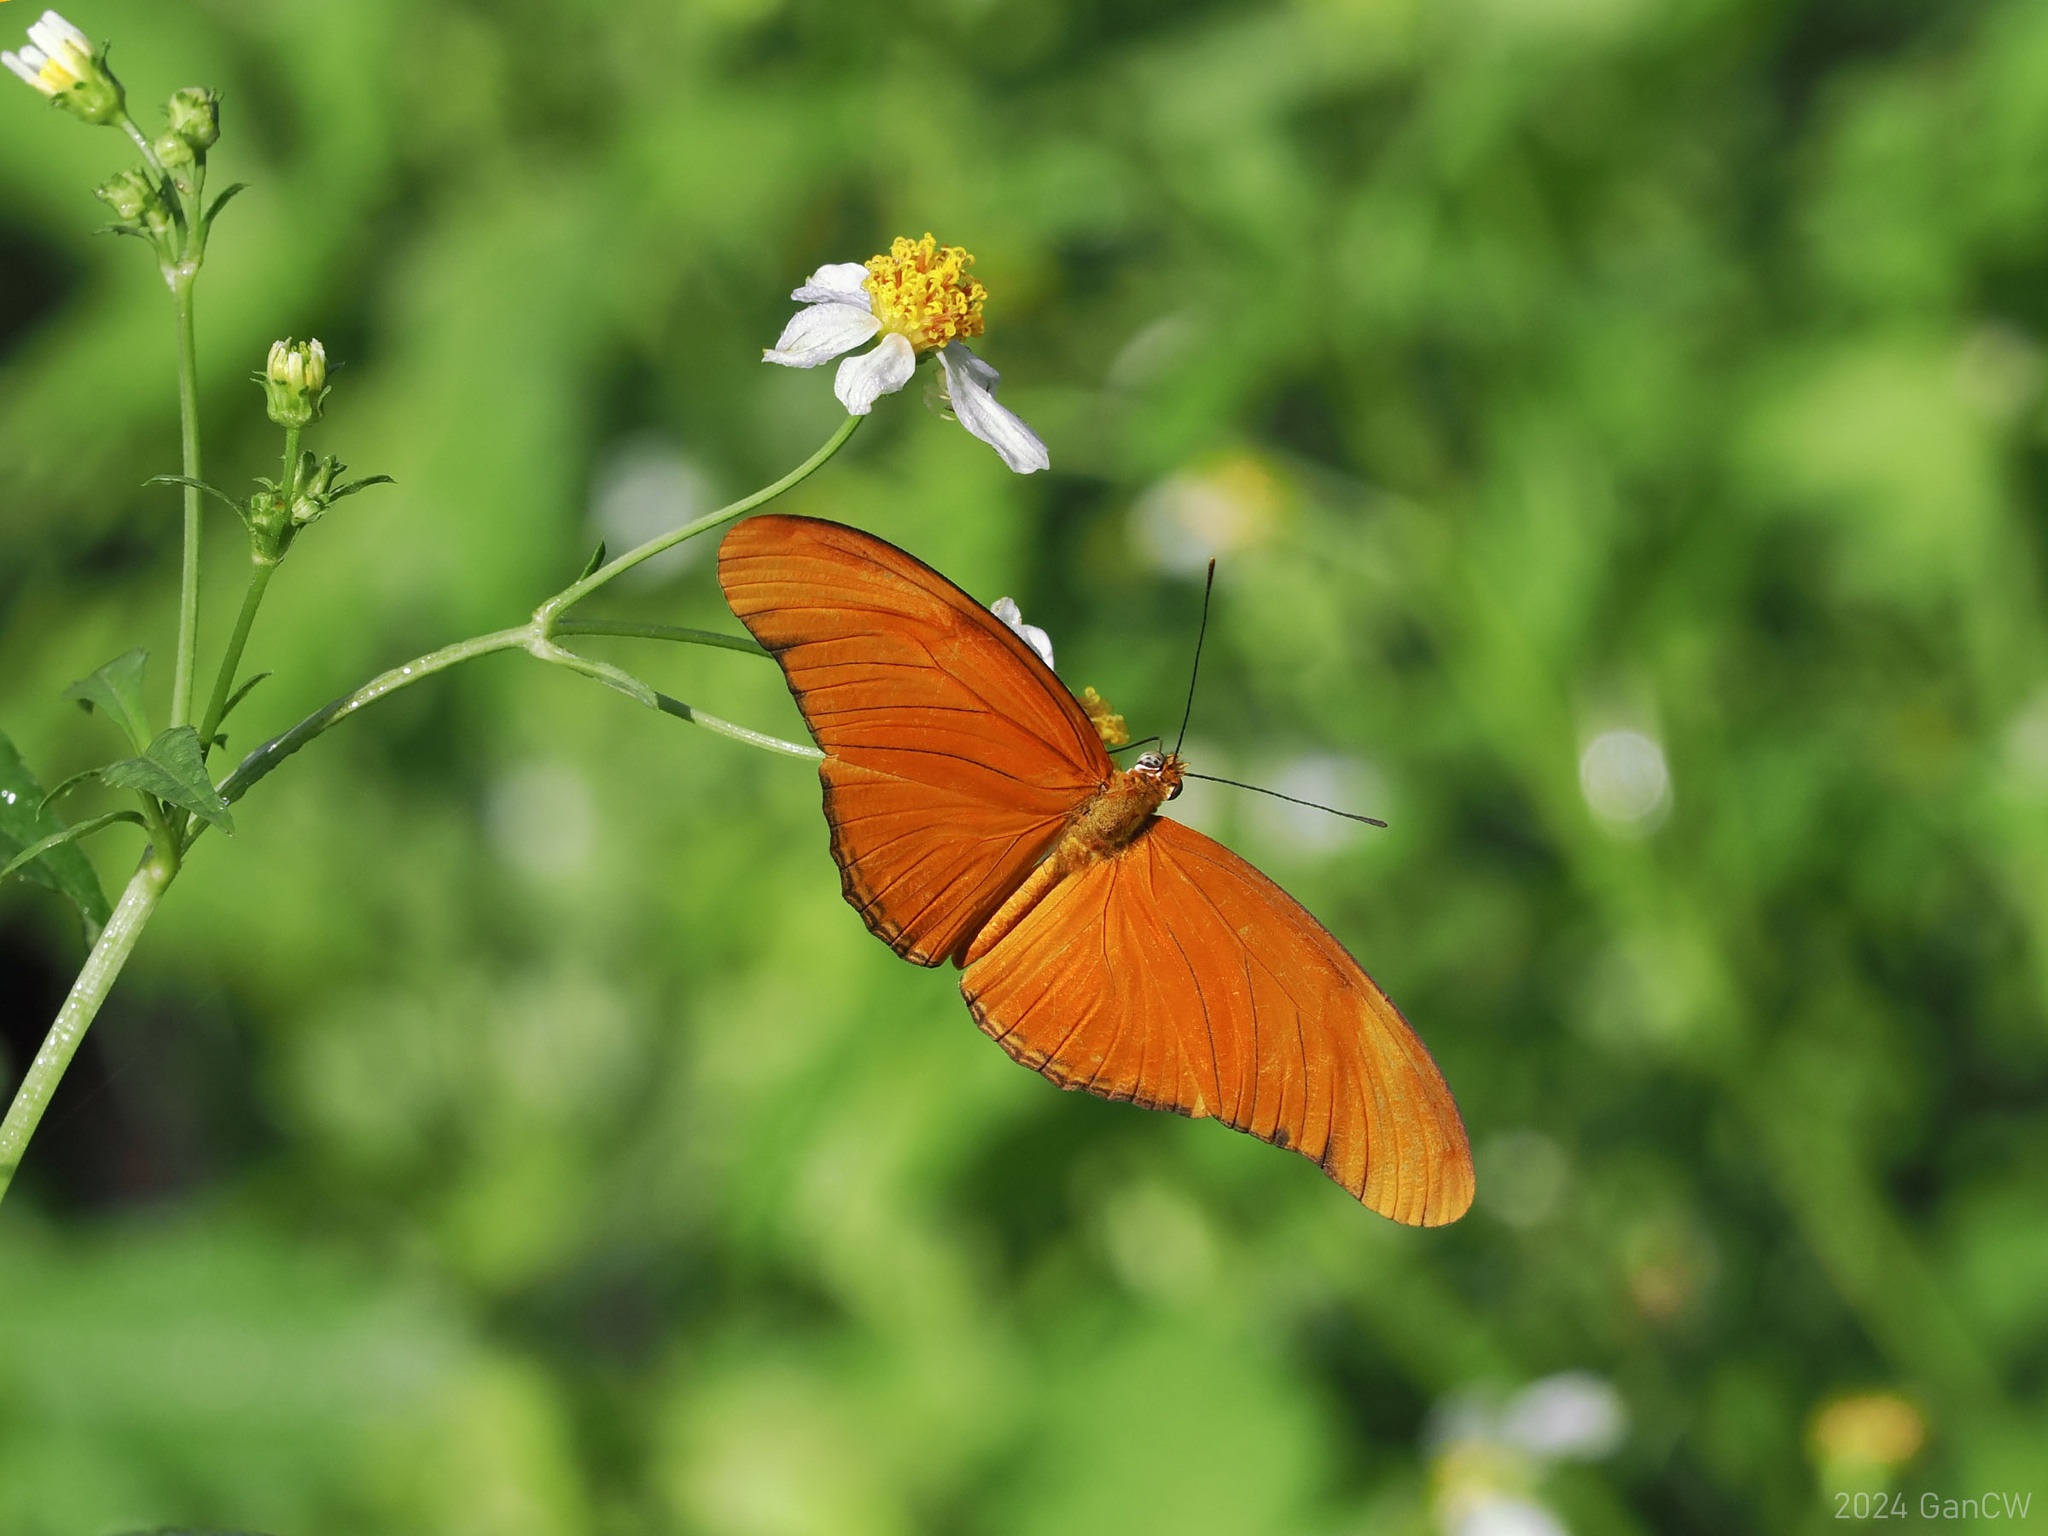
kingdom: Animalia
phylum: Arthropoda
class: Insecta
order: Lepidoptera
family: Nymphalidae
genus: Dryas
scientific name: Dryas iulia
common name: Flambeau
